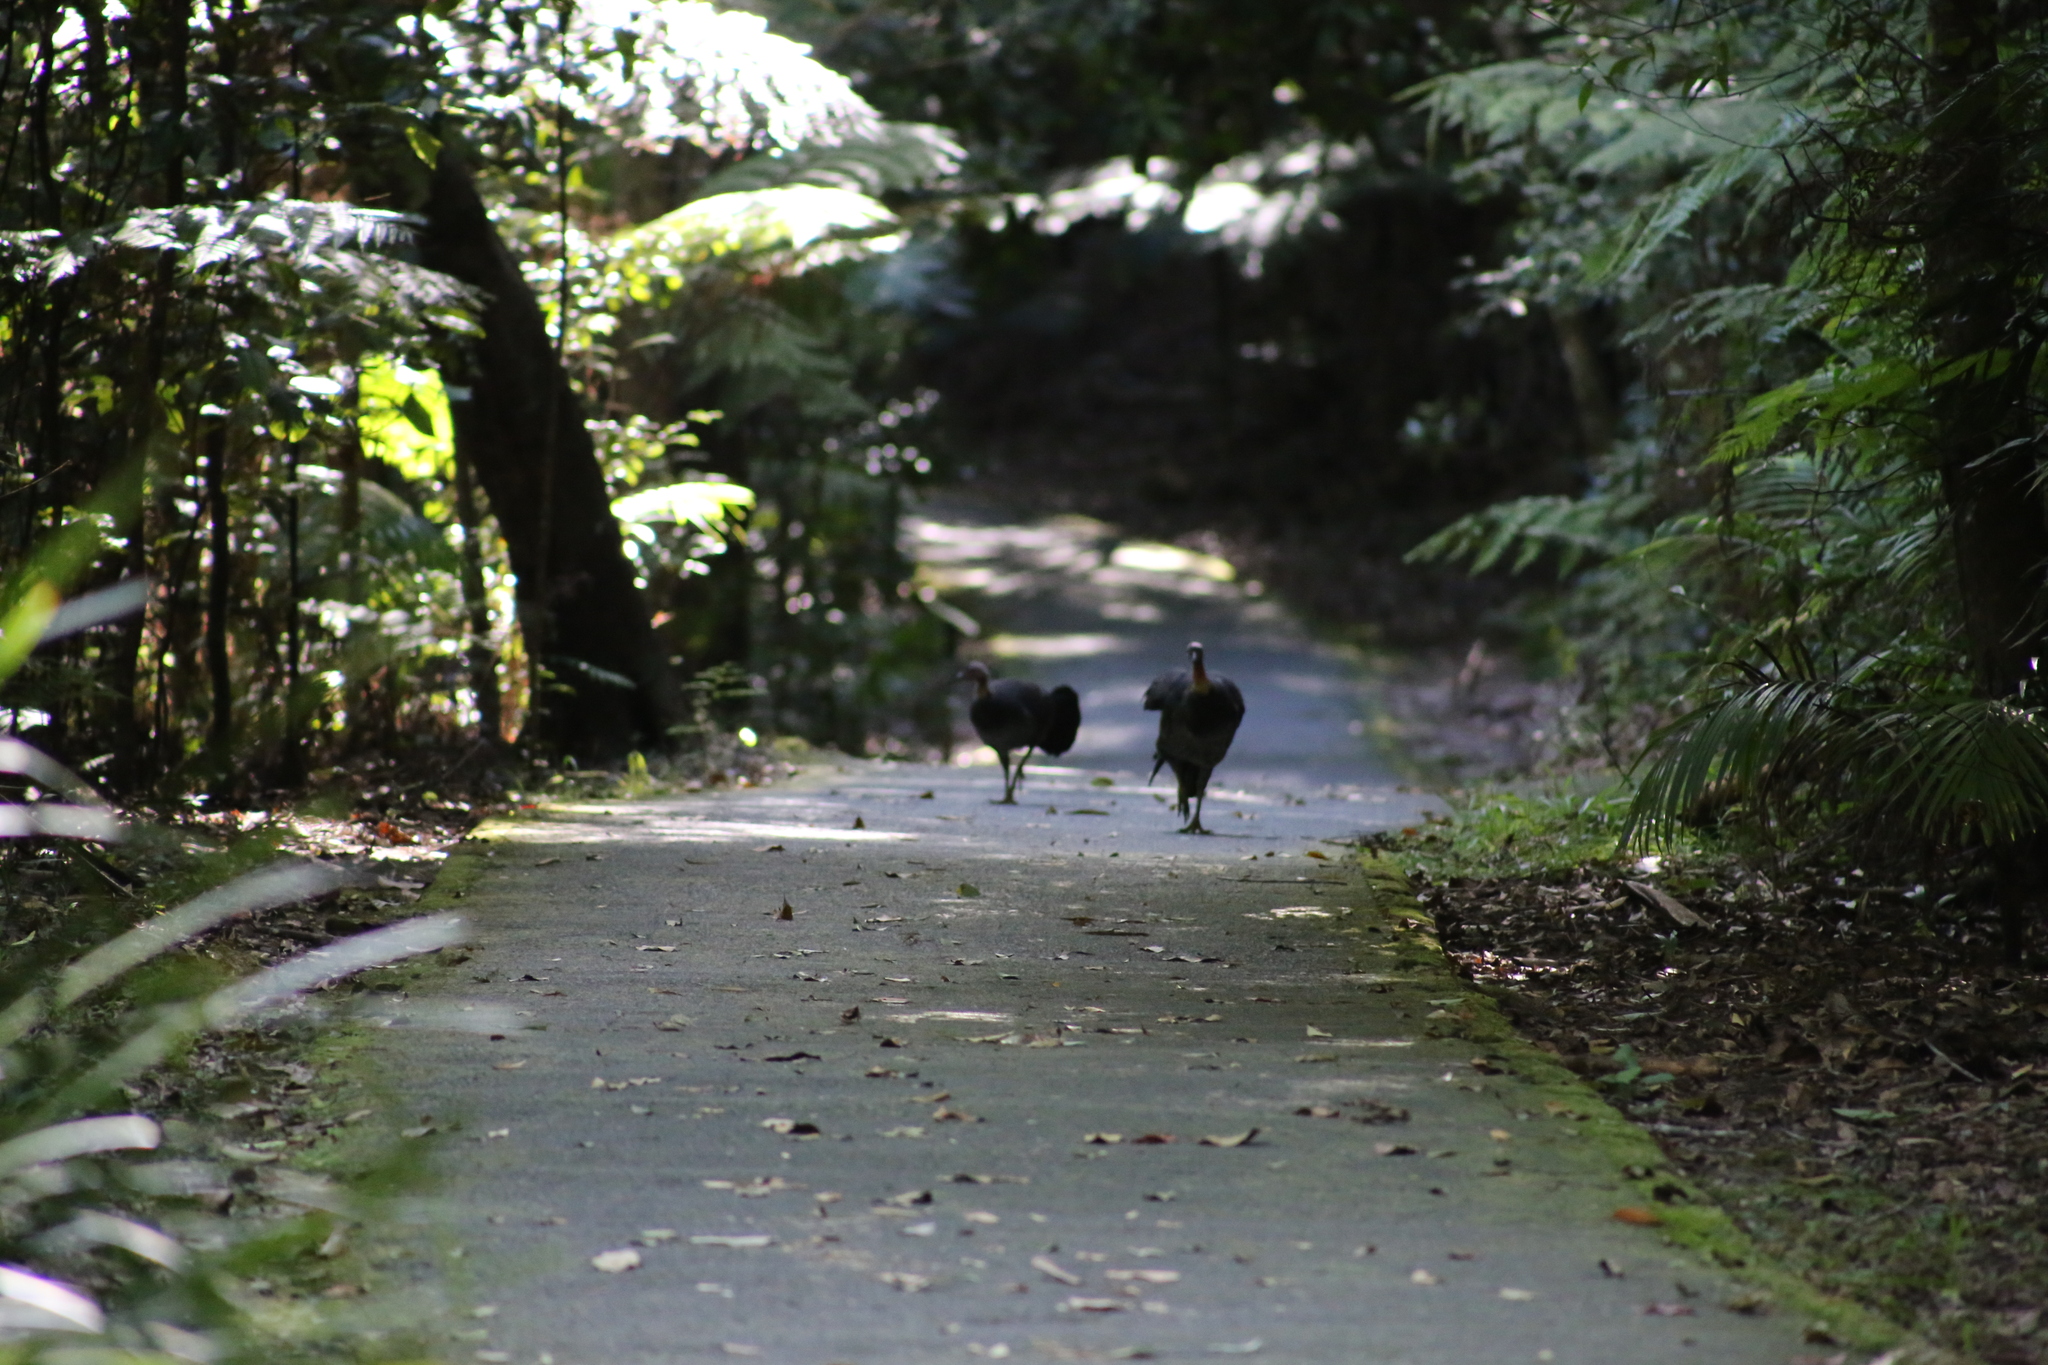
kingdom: Animalia
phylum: Chordata
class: Aves
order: Galliformes
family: Megapodiidae
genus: Alectura
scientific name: Alectura lathami
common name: Australian brushturkey
